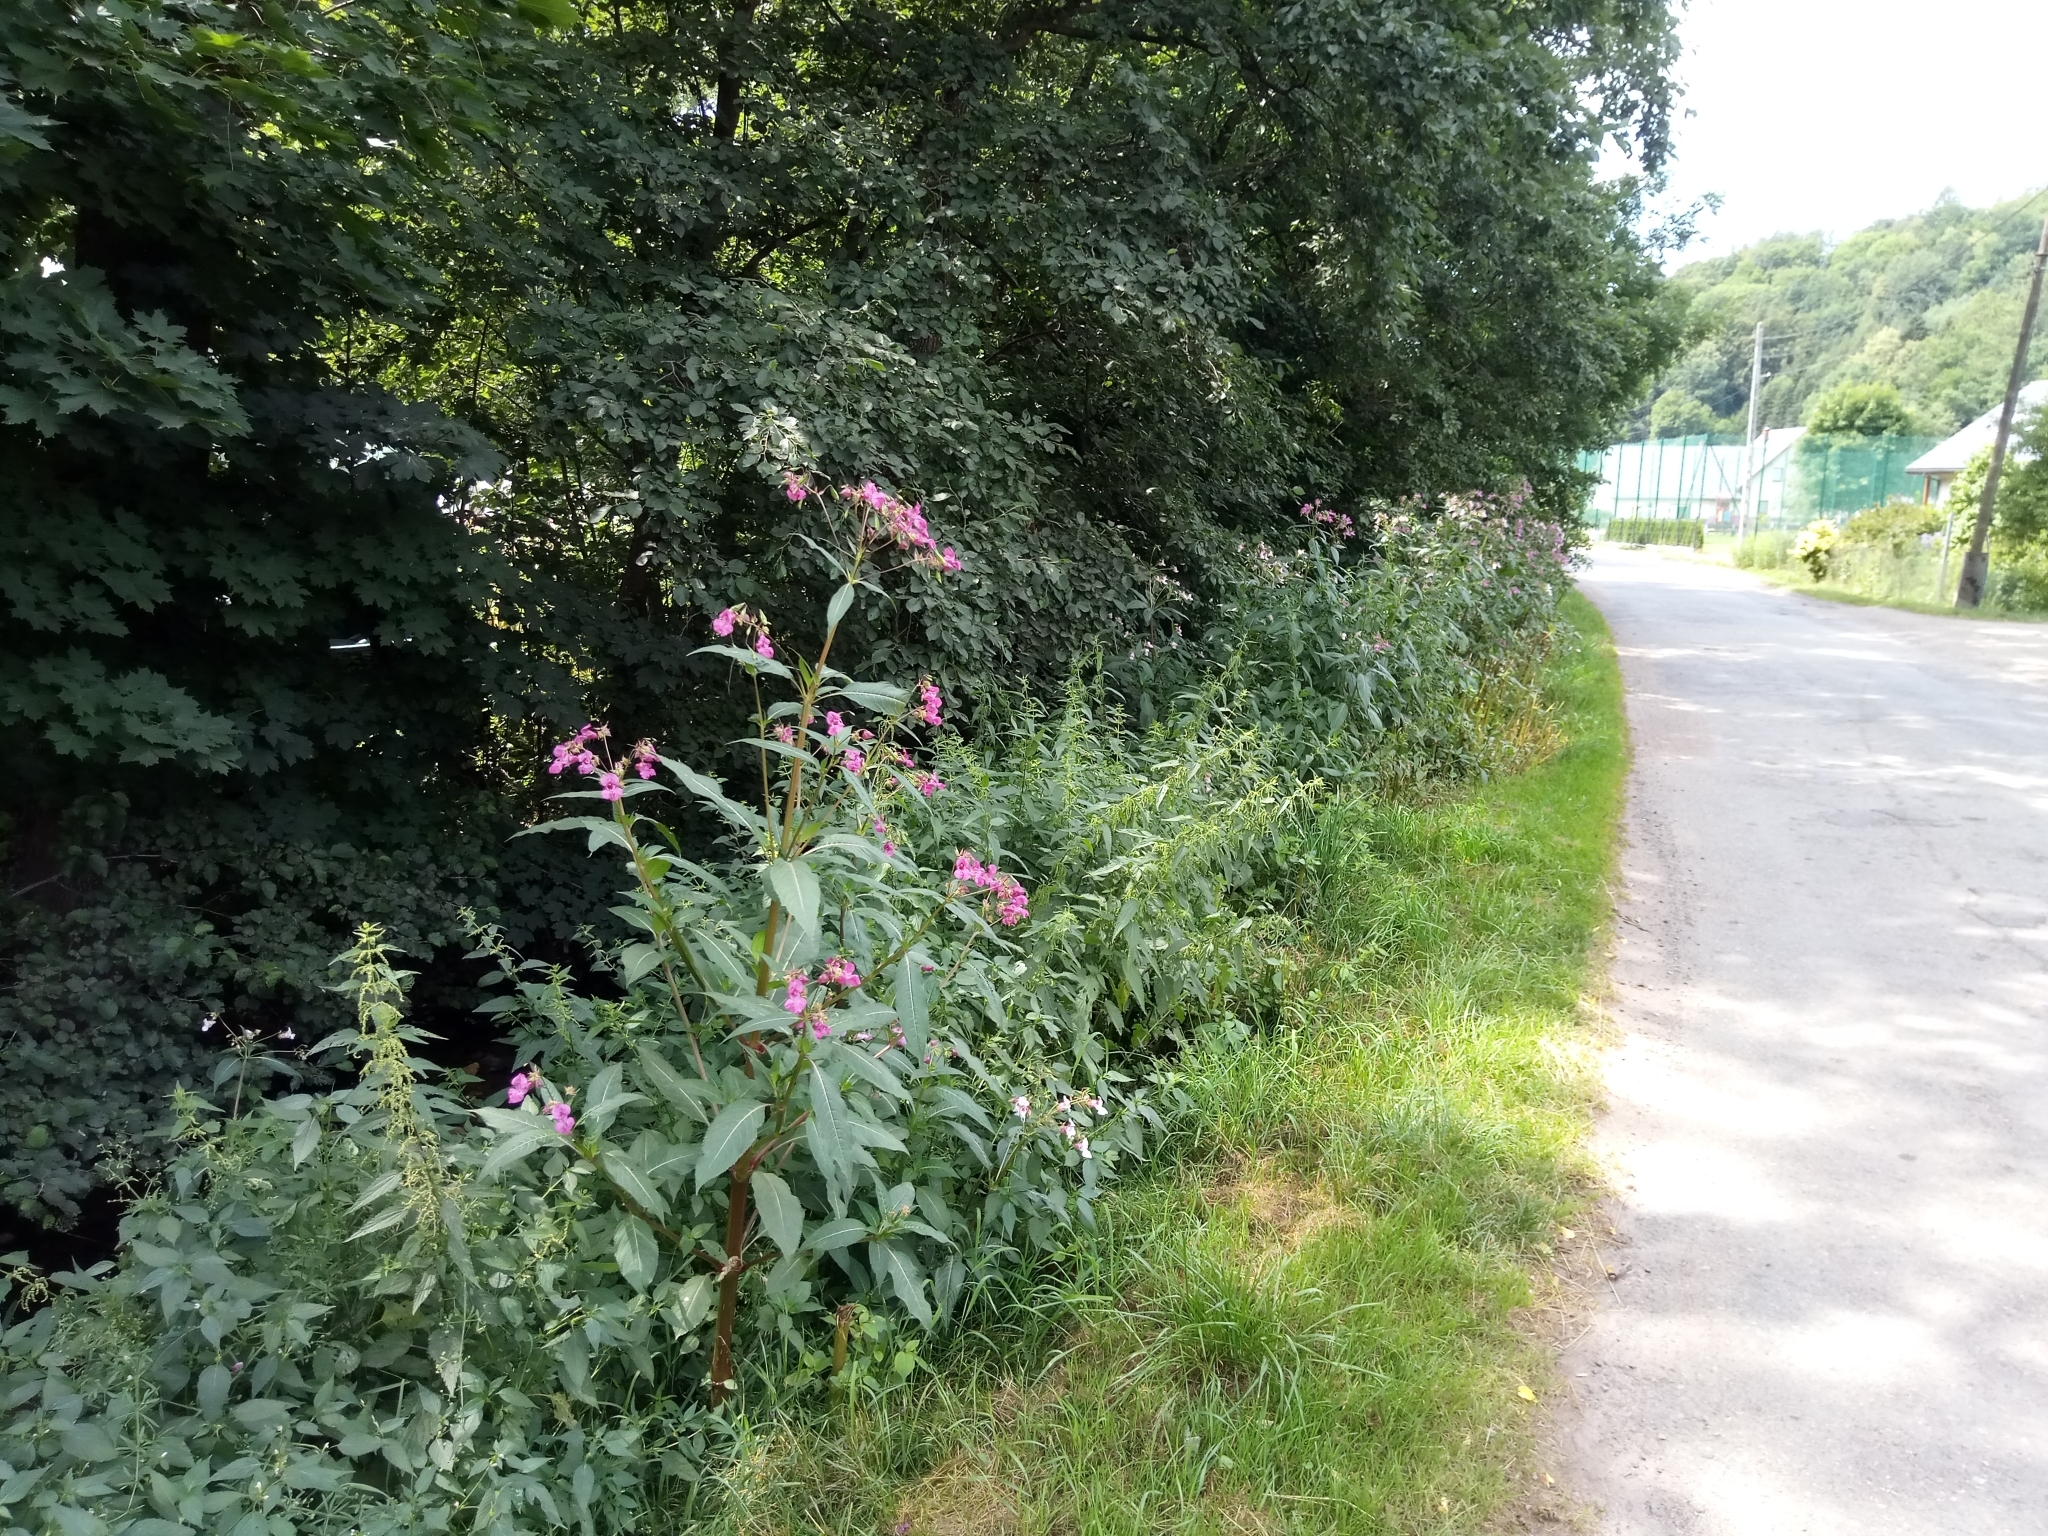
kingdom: Plantae
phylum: Tracheophyta
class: Magnoliopsida
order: Ericales
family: Balsaminaceae
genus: Impatiens
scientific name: Impatiens glandulifera
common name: Himalayan balsam
